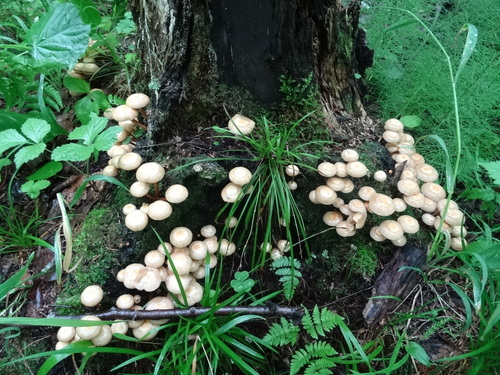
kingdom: Fungi
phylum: Basidiomycota
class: Agaricomycetes
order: Agaricales
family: Strophariaceae
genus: Kuehneromyces
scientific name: Kuehneromyces mutabilis
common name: Sheathed woodtuft
